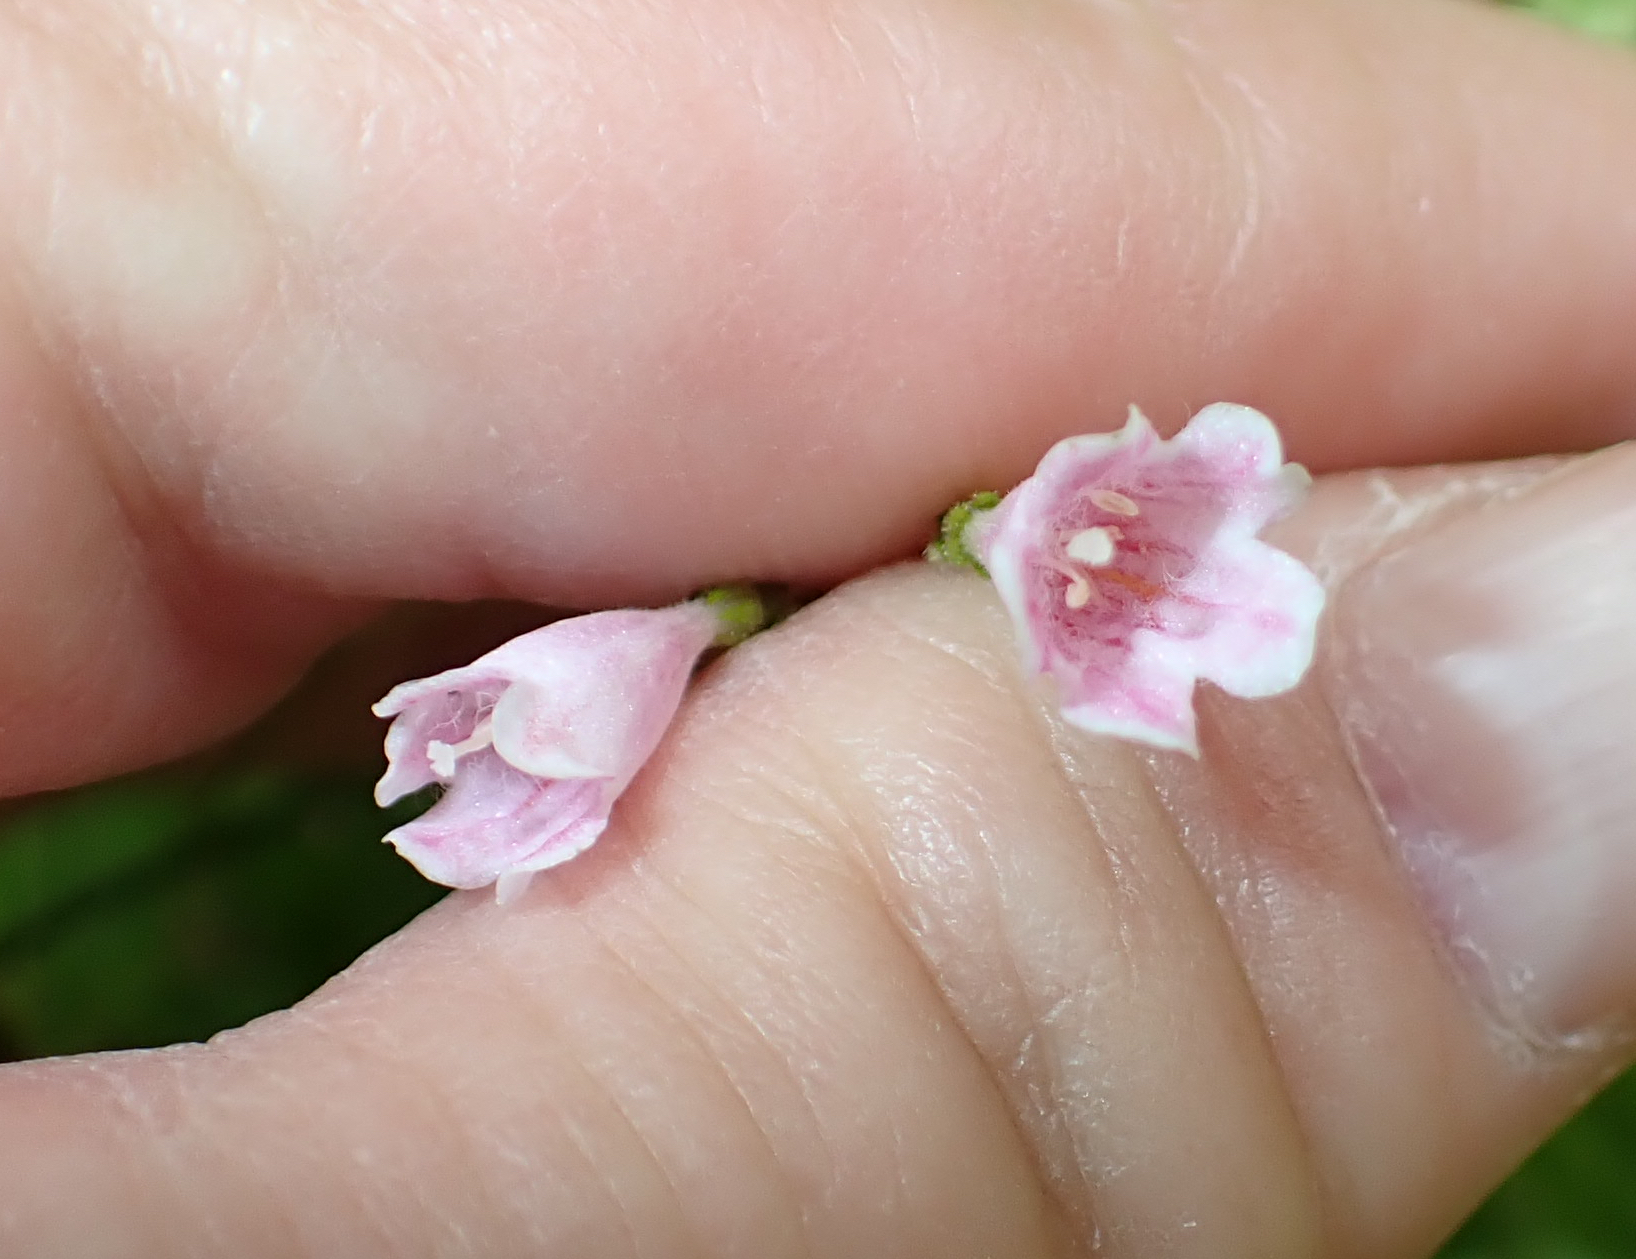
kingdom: Plantae
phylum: Tracheophyta
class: Magnoliopsida
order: Dipsacales
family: Caprifoliaceae
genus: Linnaea
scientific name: Linnaea borealis
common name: Twinflower
